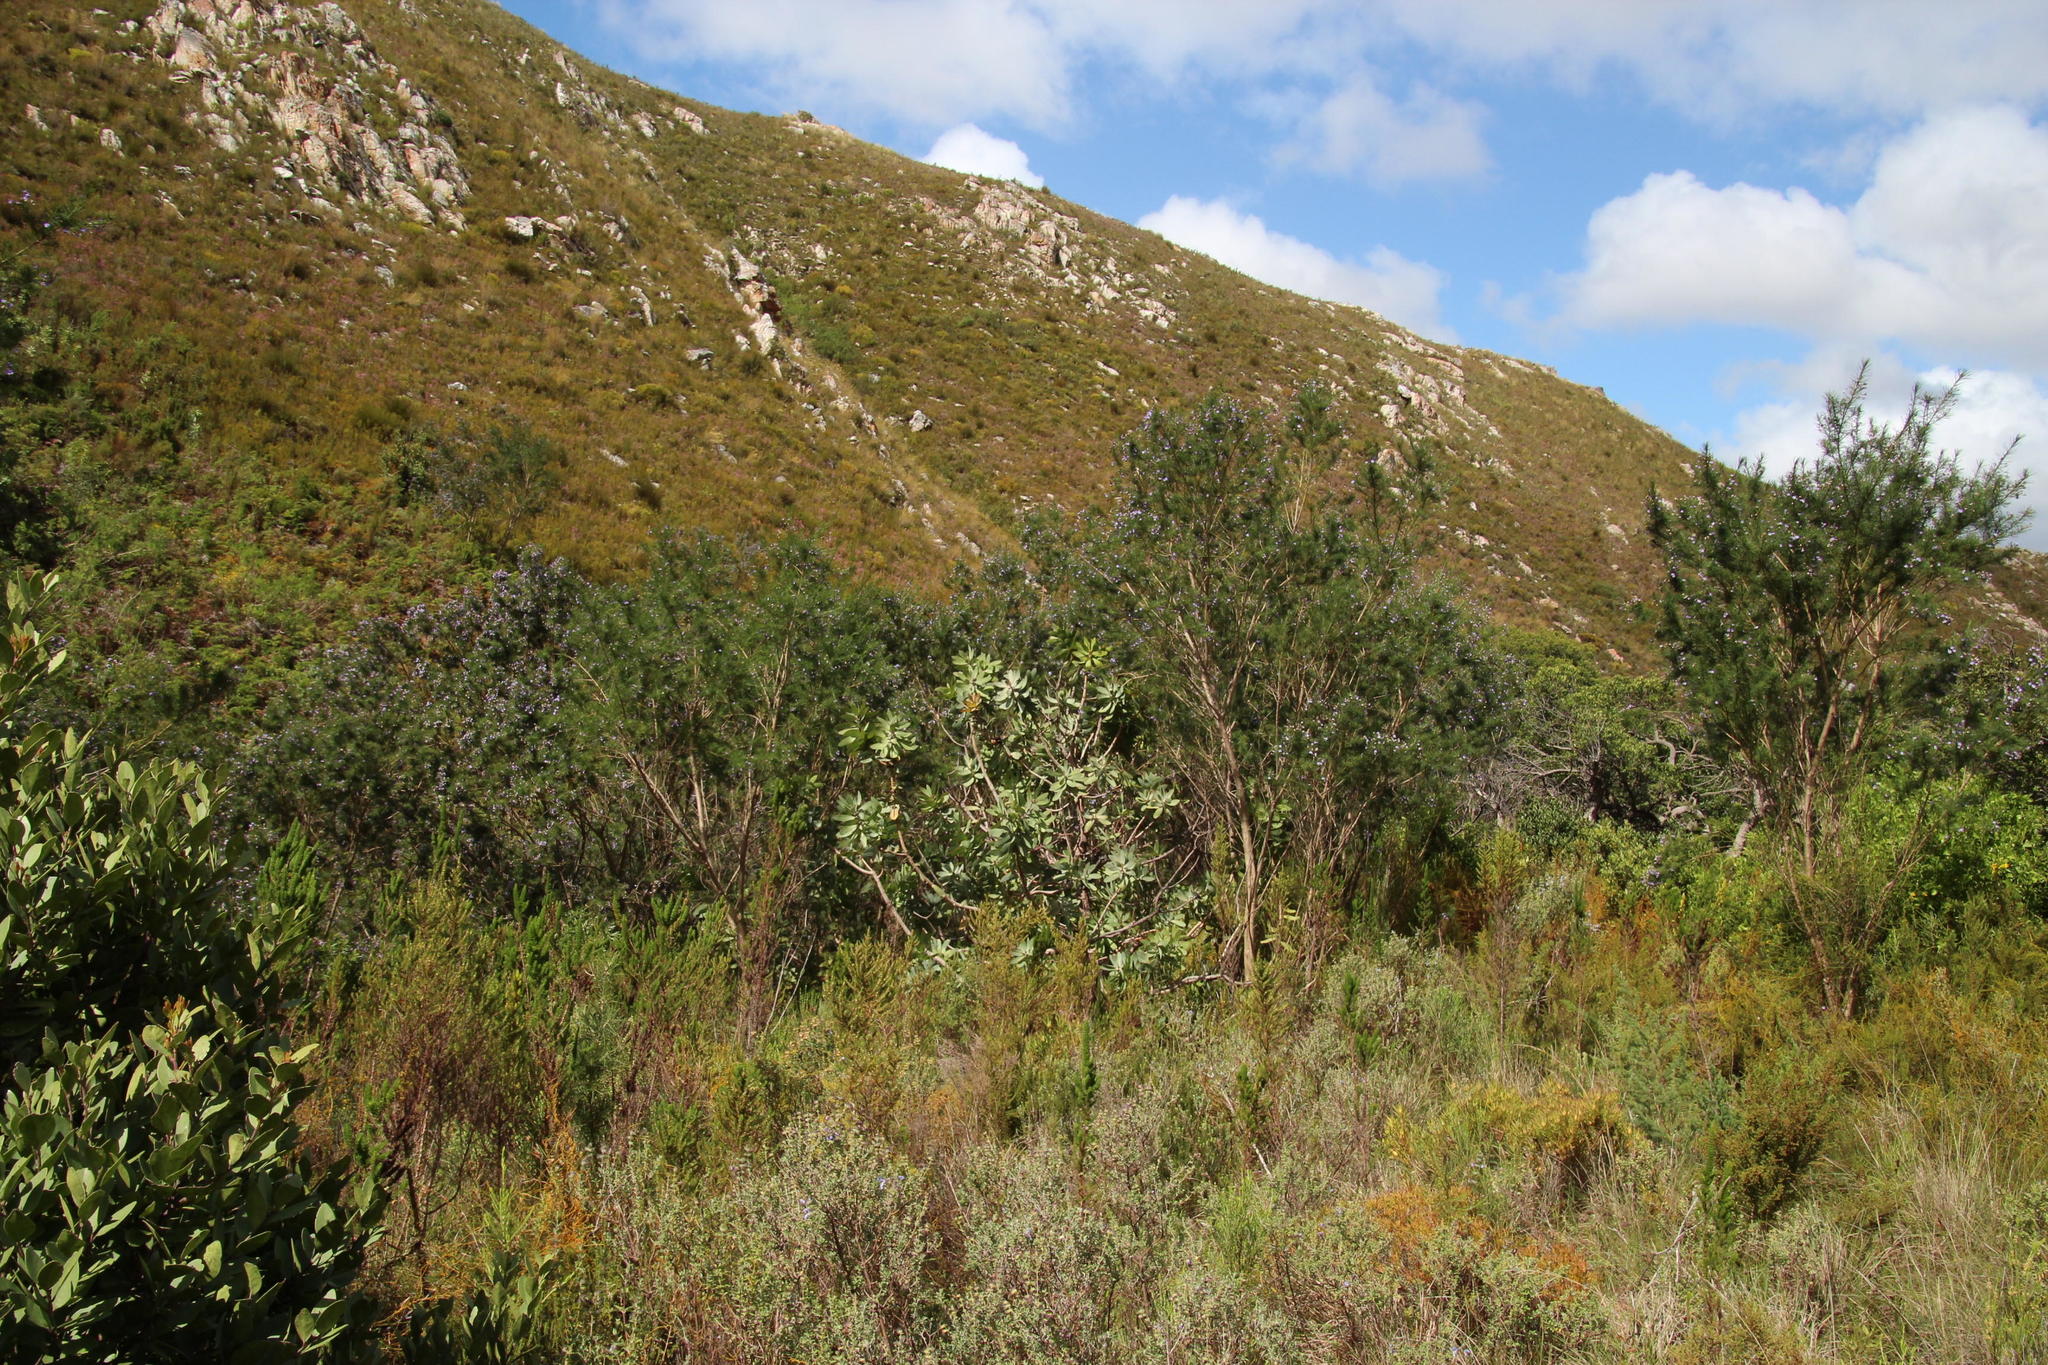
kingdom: Plantae
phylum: Tracheophyta
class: Magnoliopsida
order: Proteales
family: Proteaceae
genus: Protea
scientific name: Protea nitida
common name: Tree protea
